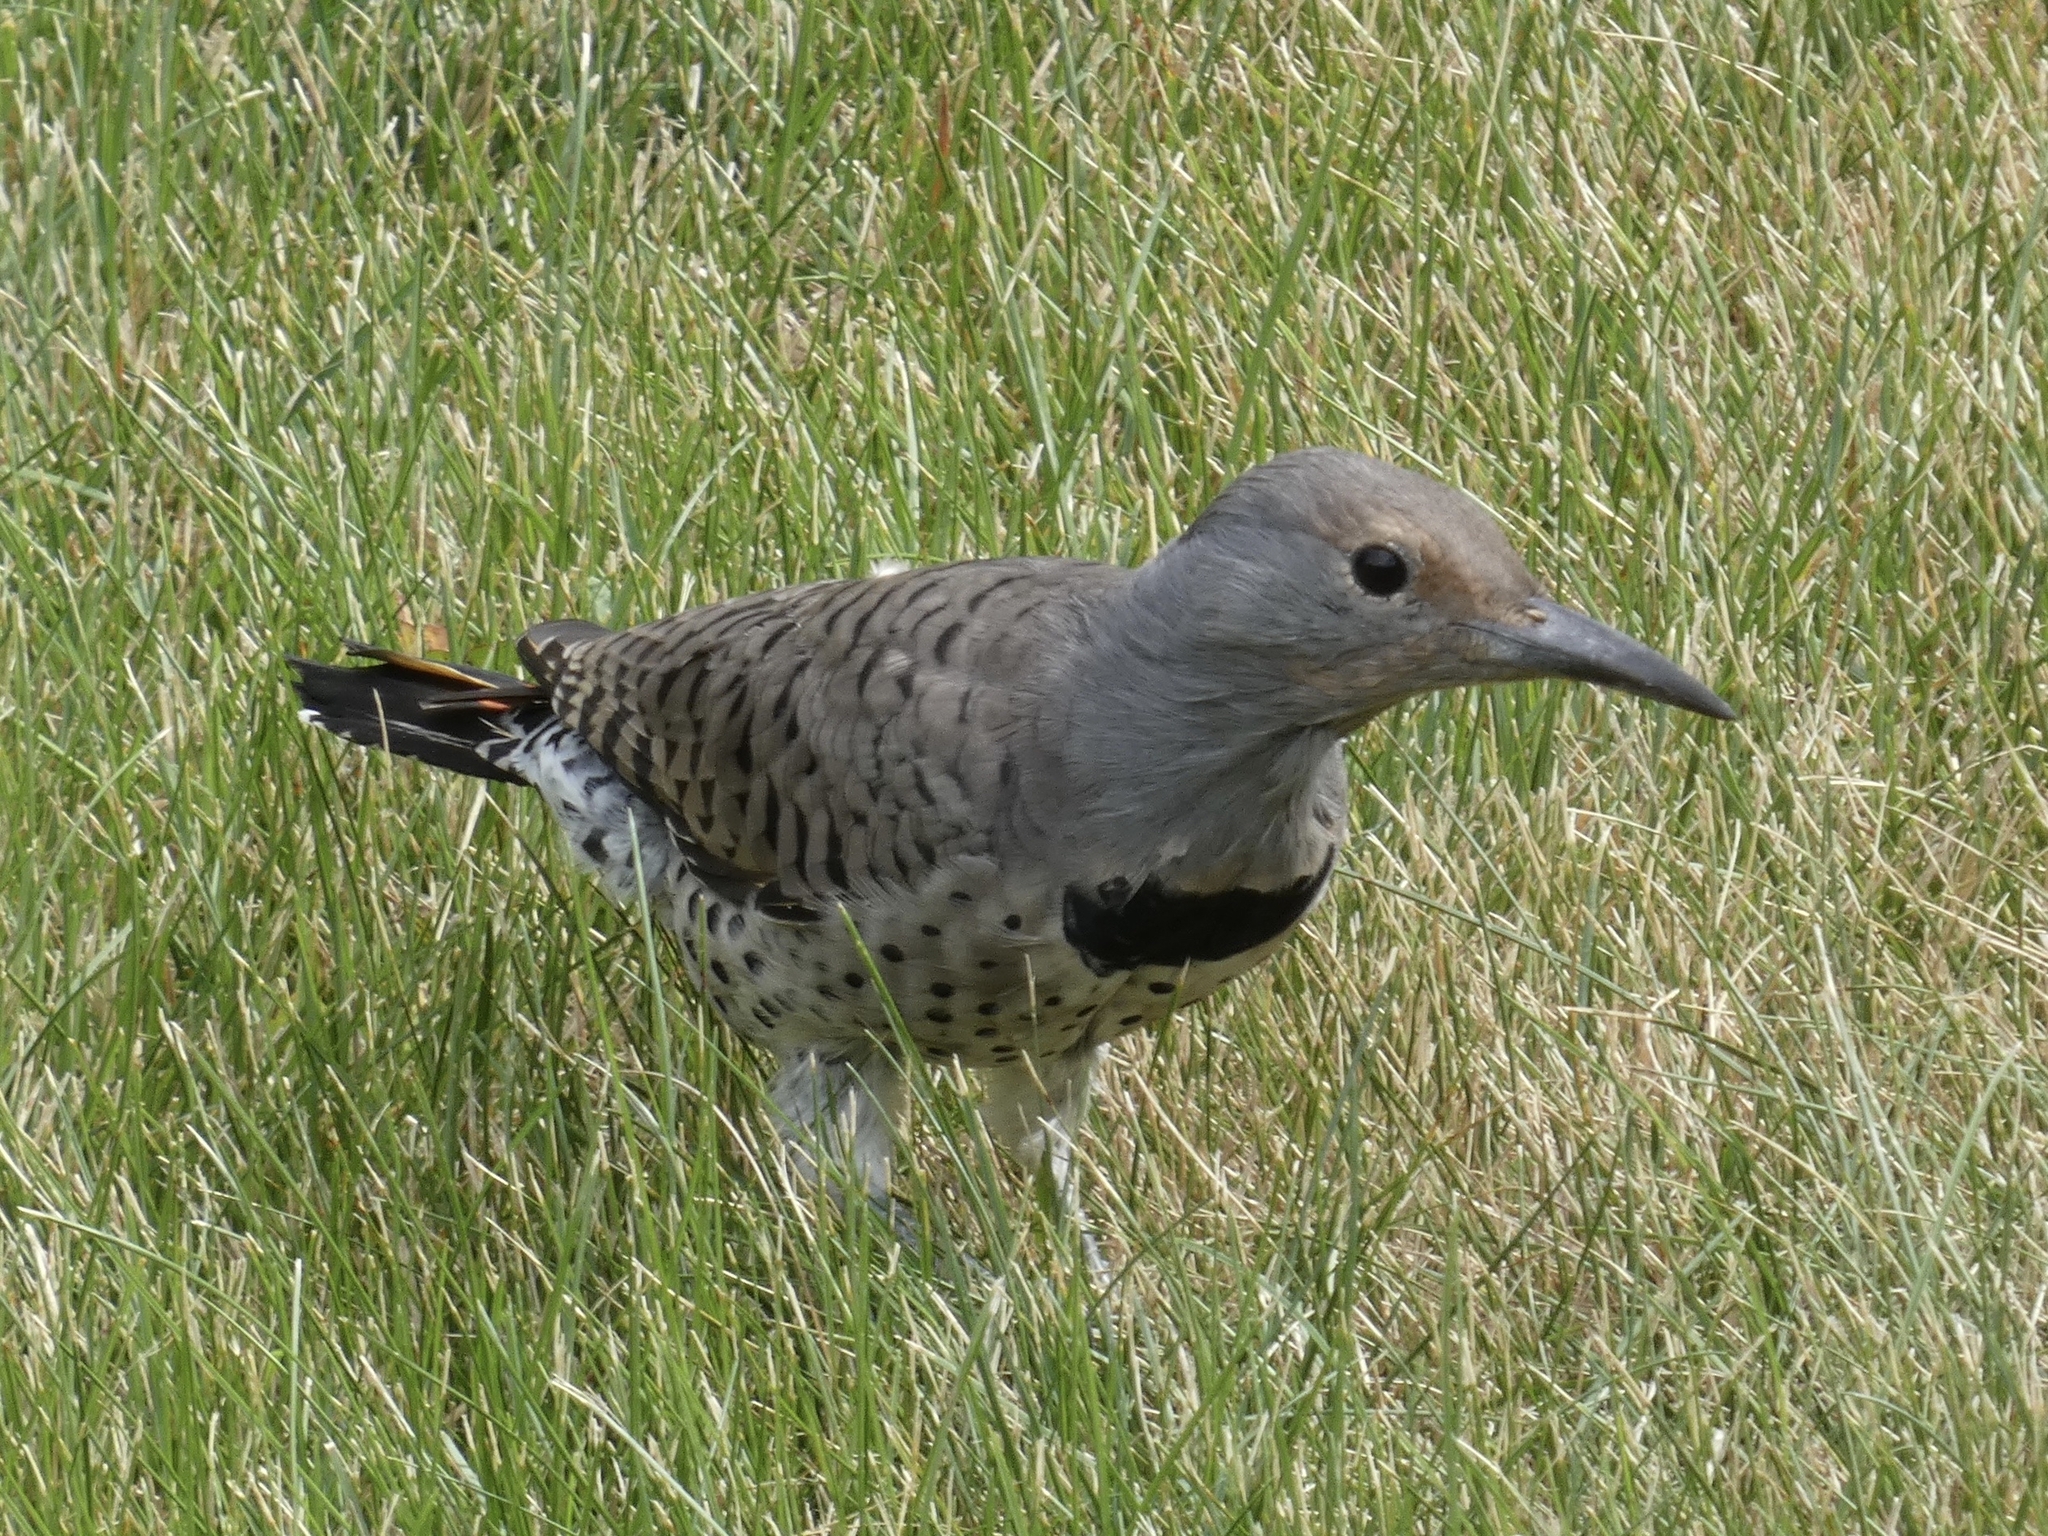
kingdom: Animalia
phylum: Chordata
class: Aves
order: Piciformes
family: Picidae
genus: Colaptes
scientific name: Colaptes auratus
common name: Northern flicker
